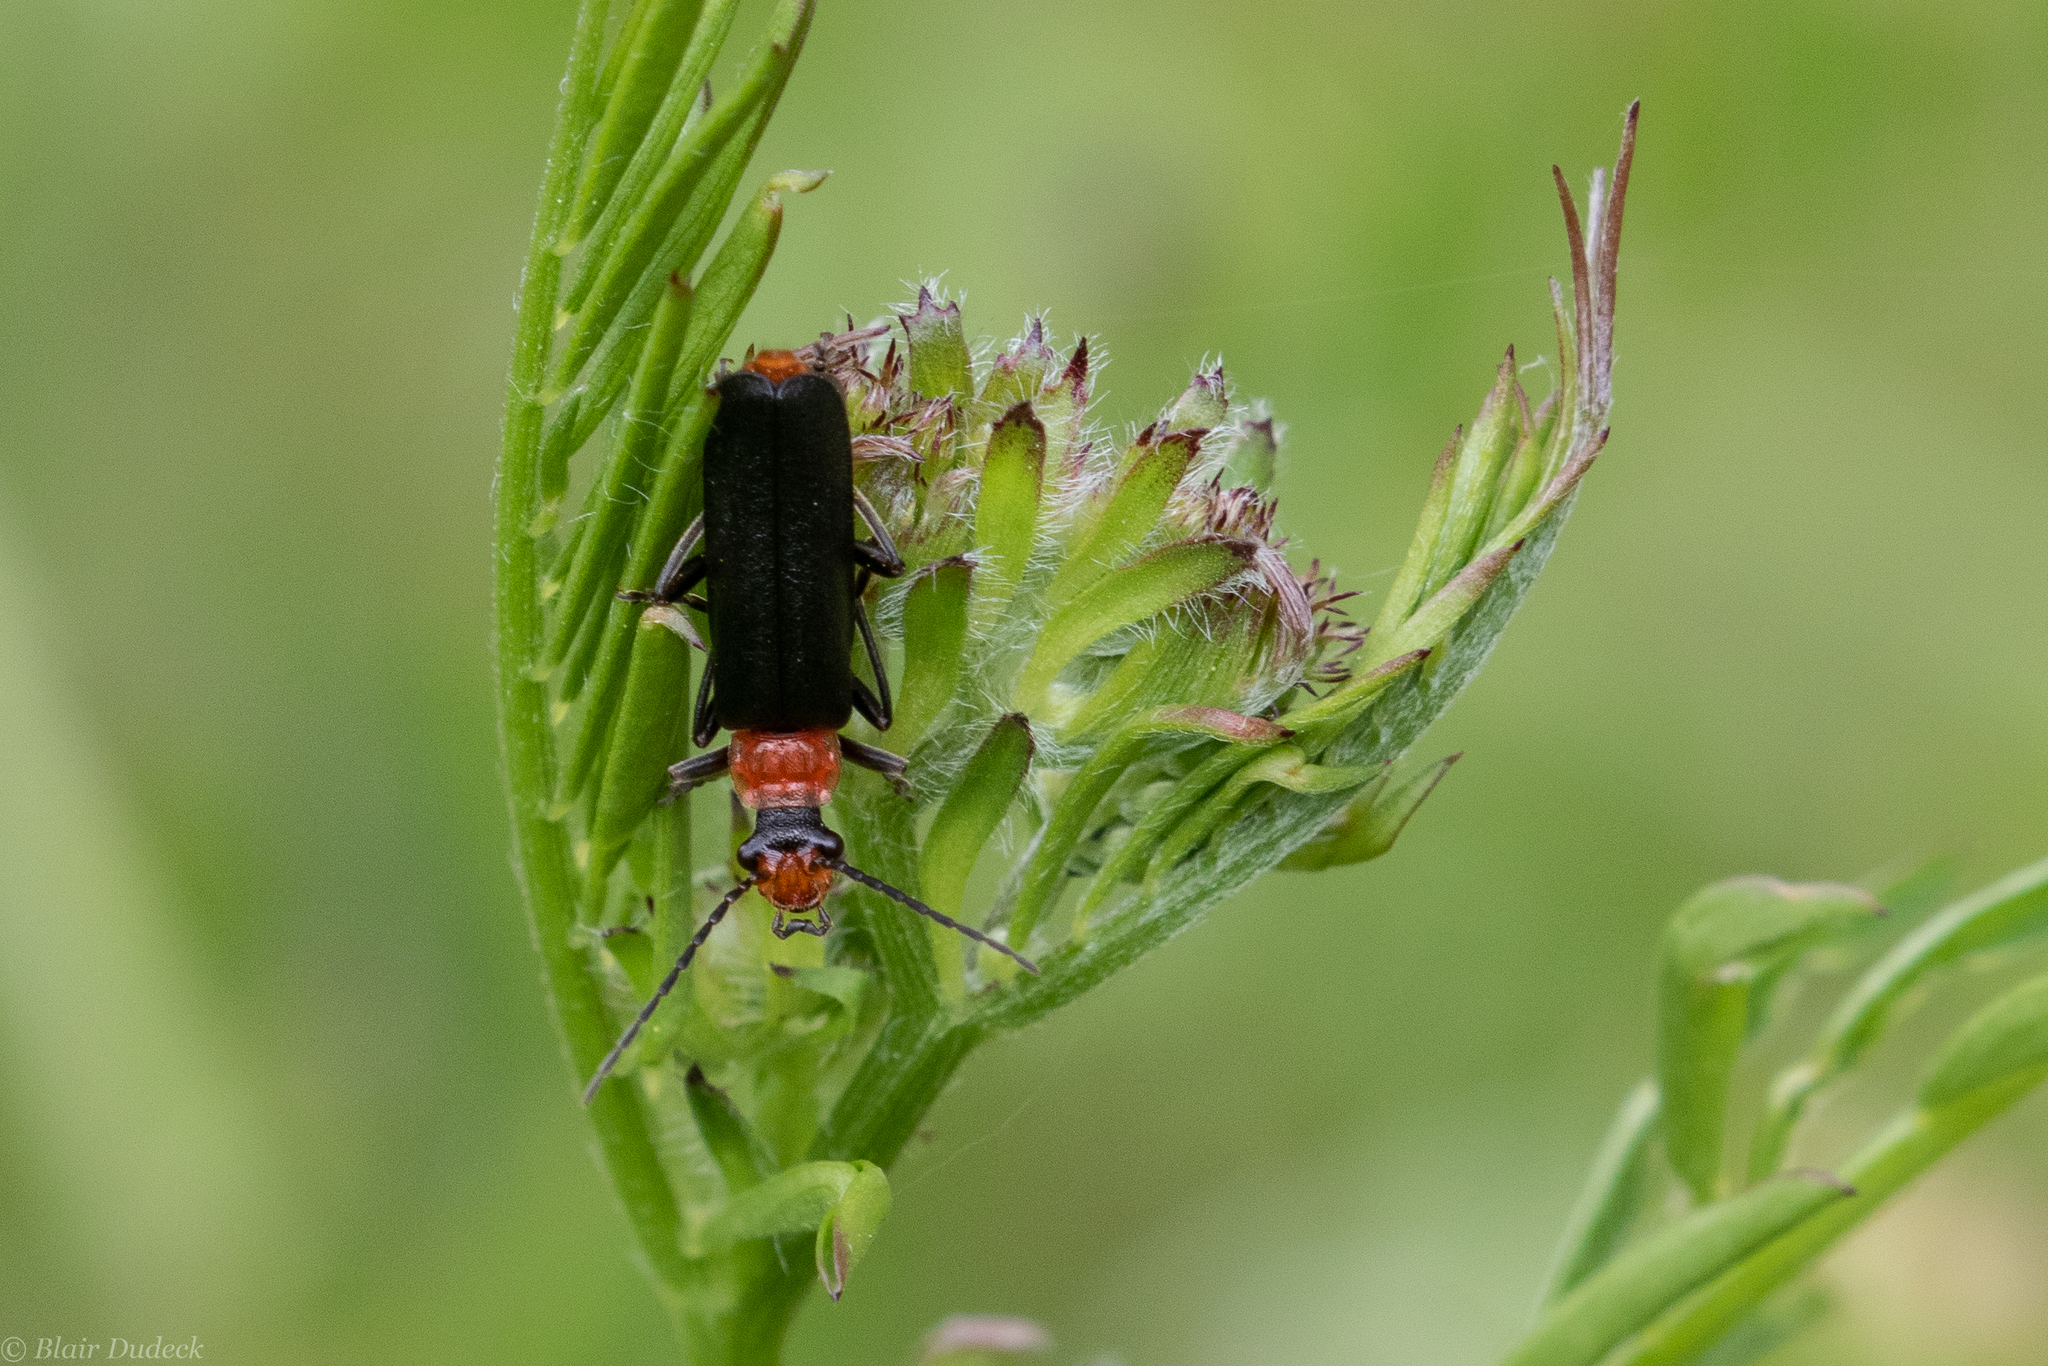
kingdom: Animalia
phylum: Arthropoda
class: Insecta
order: Coleoptera
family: Cantharidae
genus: Podabrus
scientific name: Podabrus pruinosus
